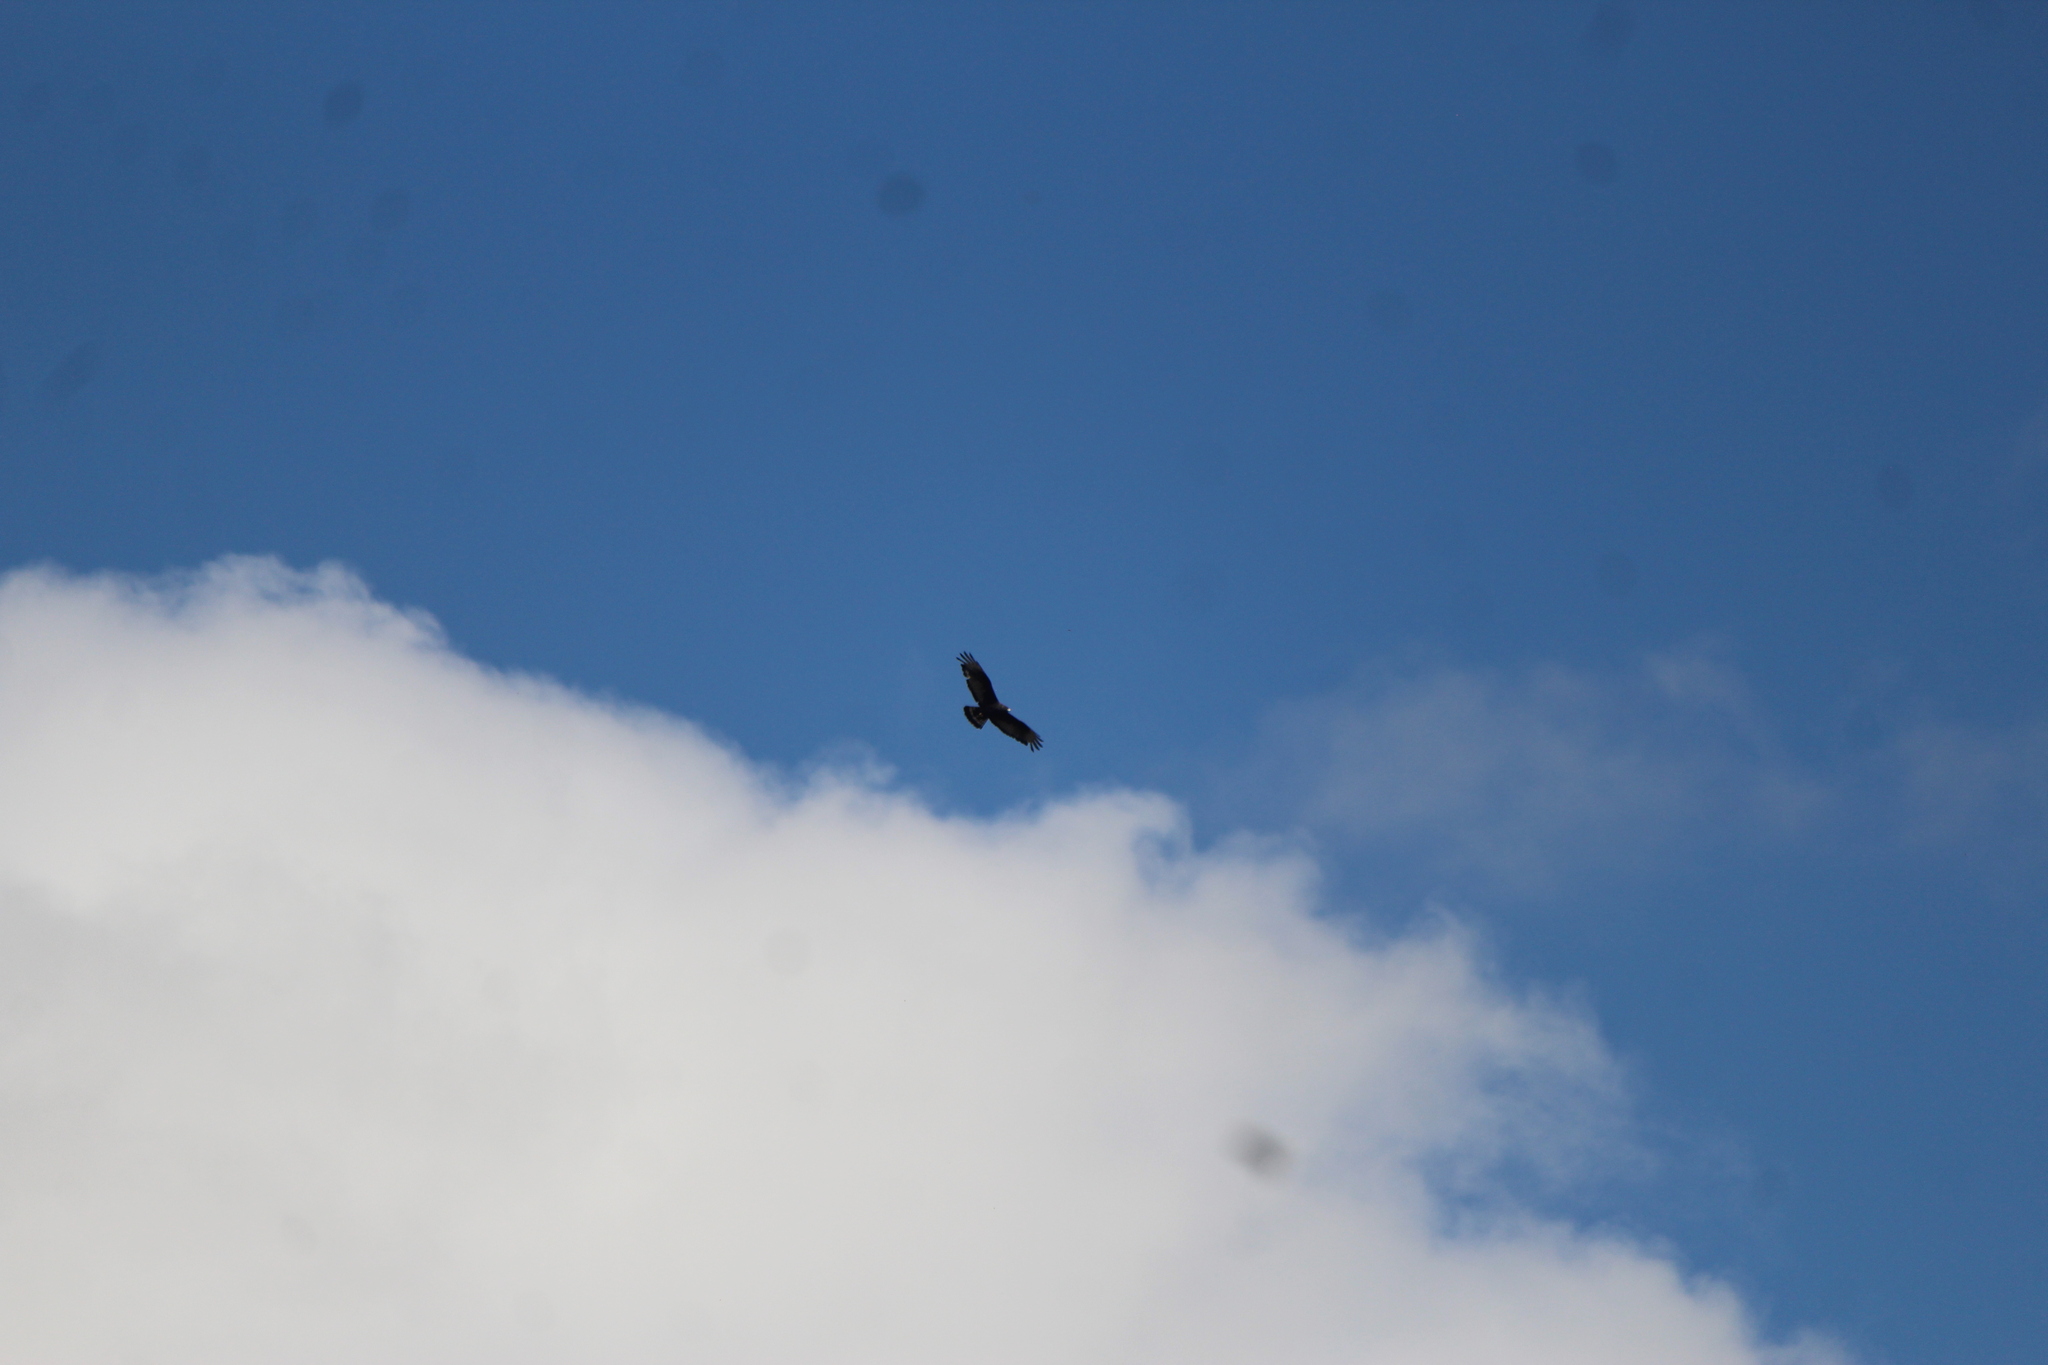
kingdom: Animalia
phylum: Chordata
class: Aves
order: Accipitriformes
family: Accipitridae
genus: Buteo
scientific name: Buteo albonotatus
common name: Zone-tailed hawk
